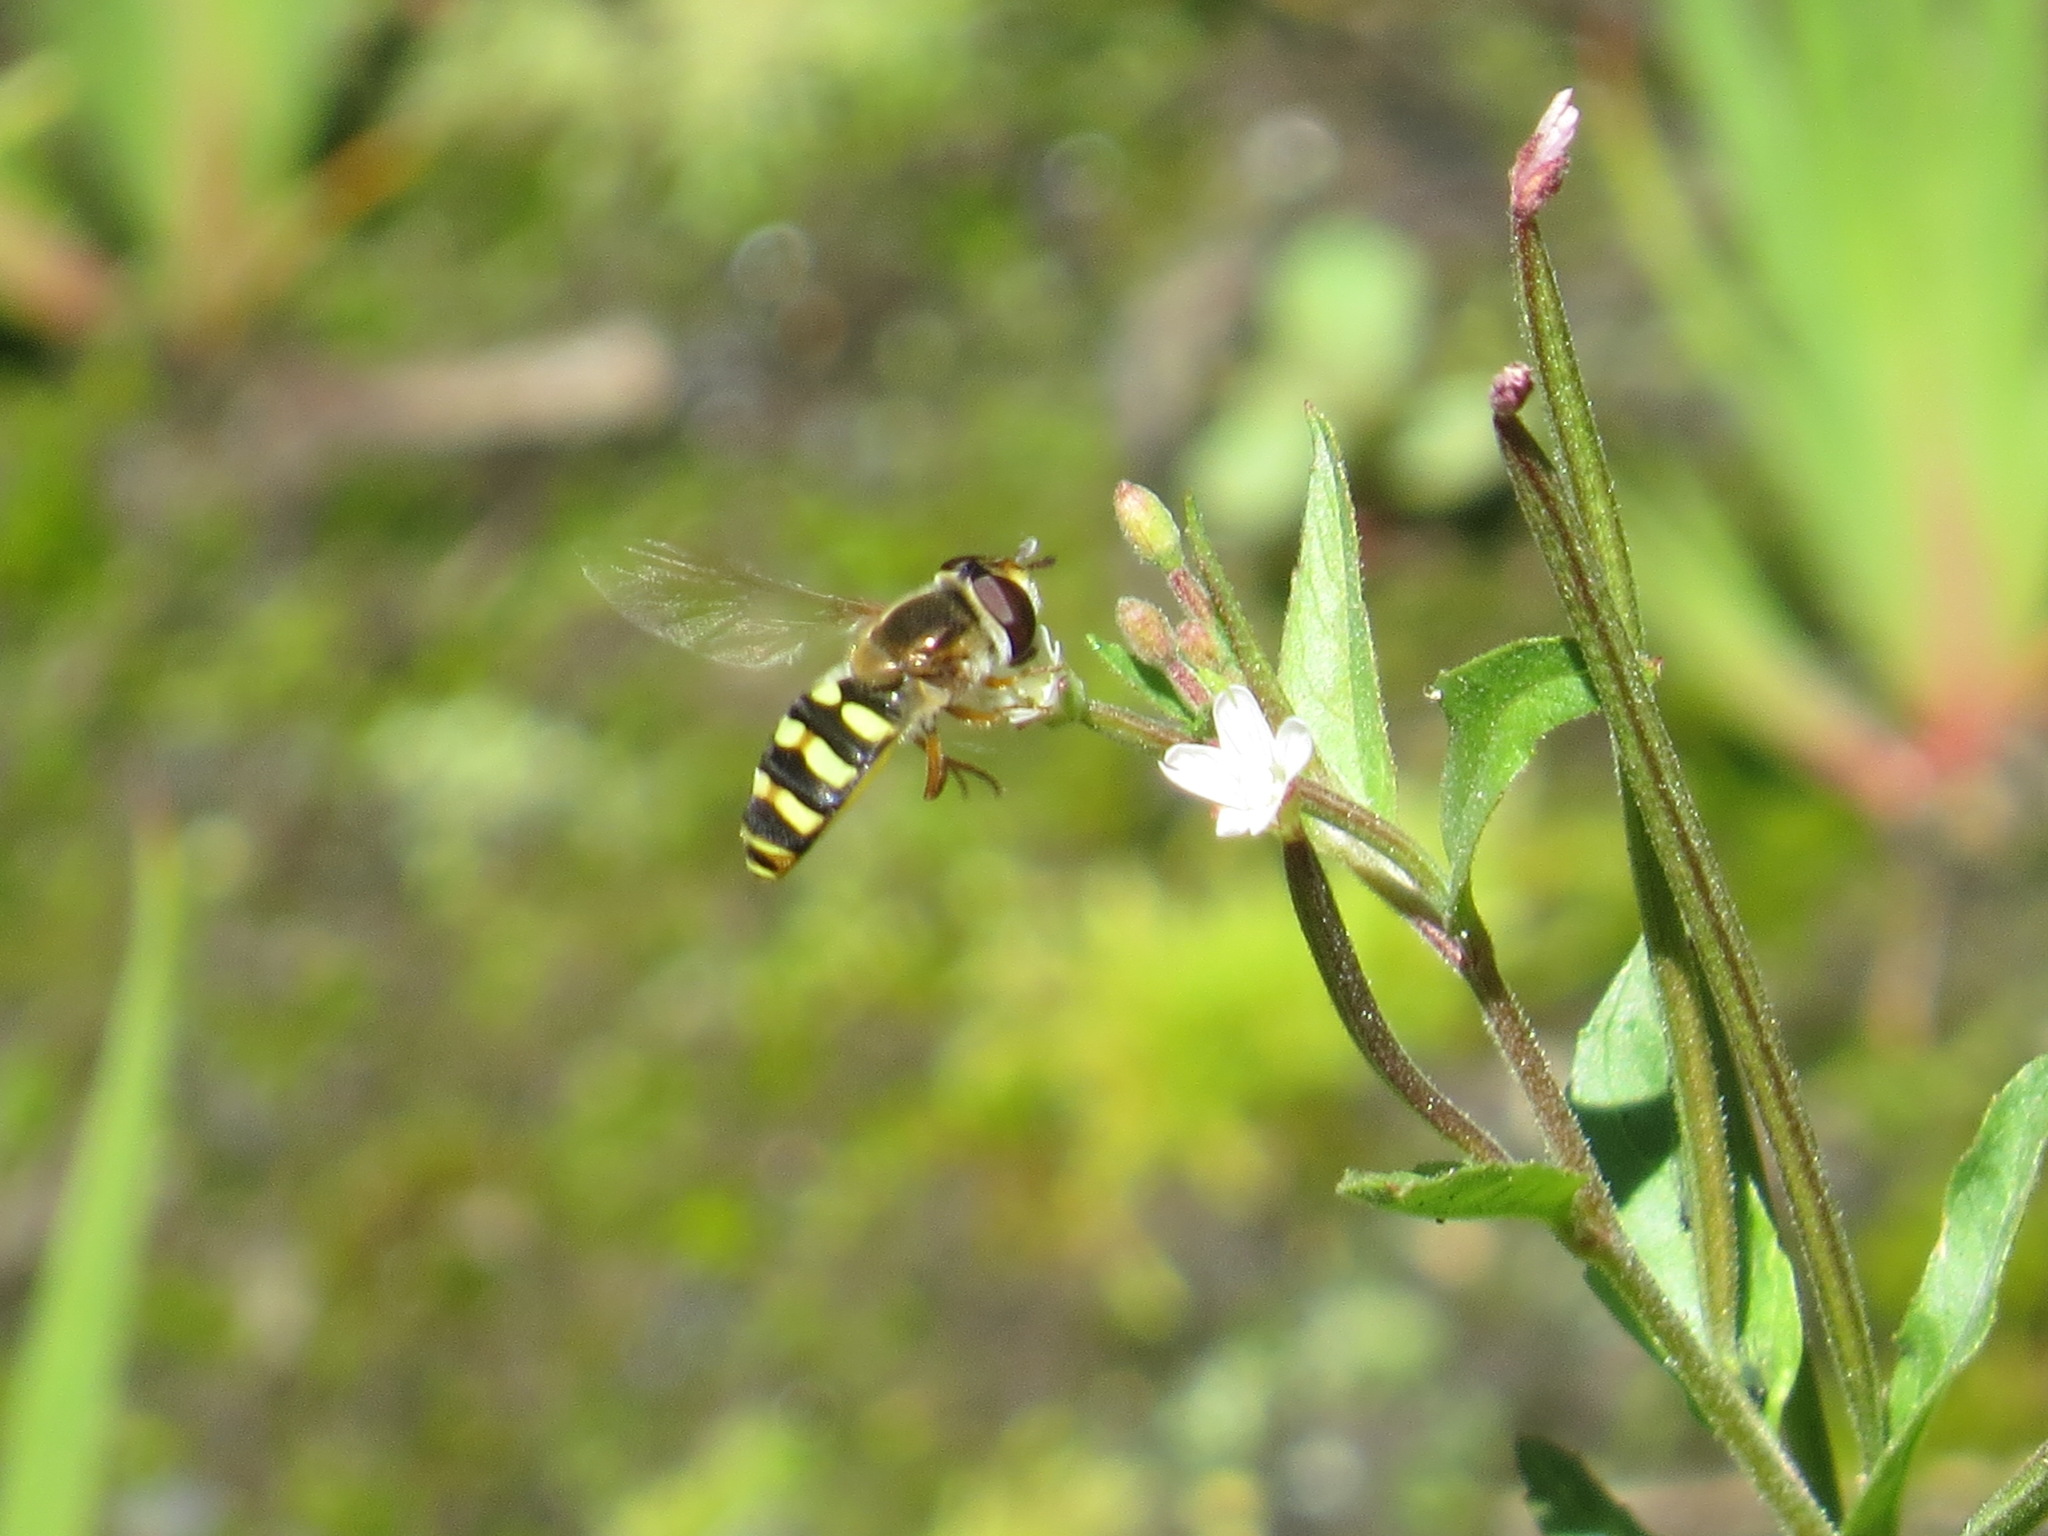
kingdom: Animalia
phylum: Arthropoda
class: Insecta
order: Diptera
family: Syrphidae
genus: Eupeodes
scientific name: Eupeodes fumipennis
